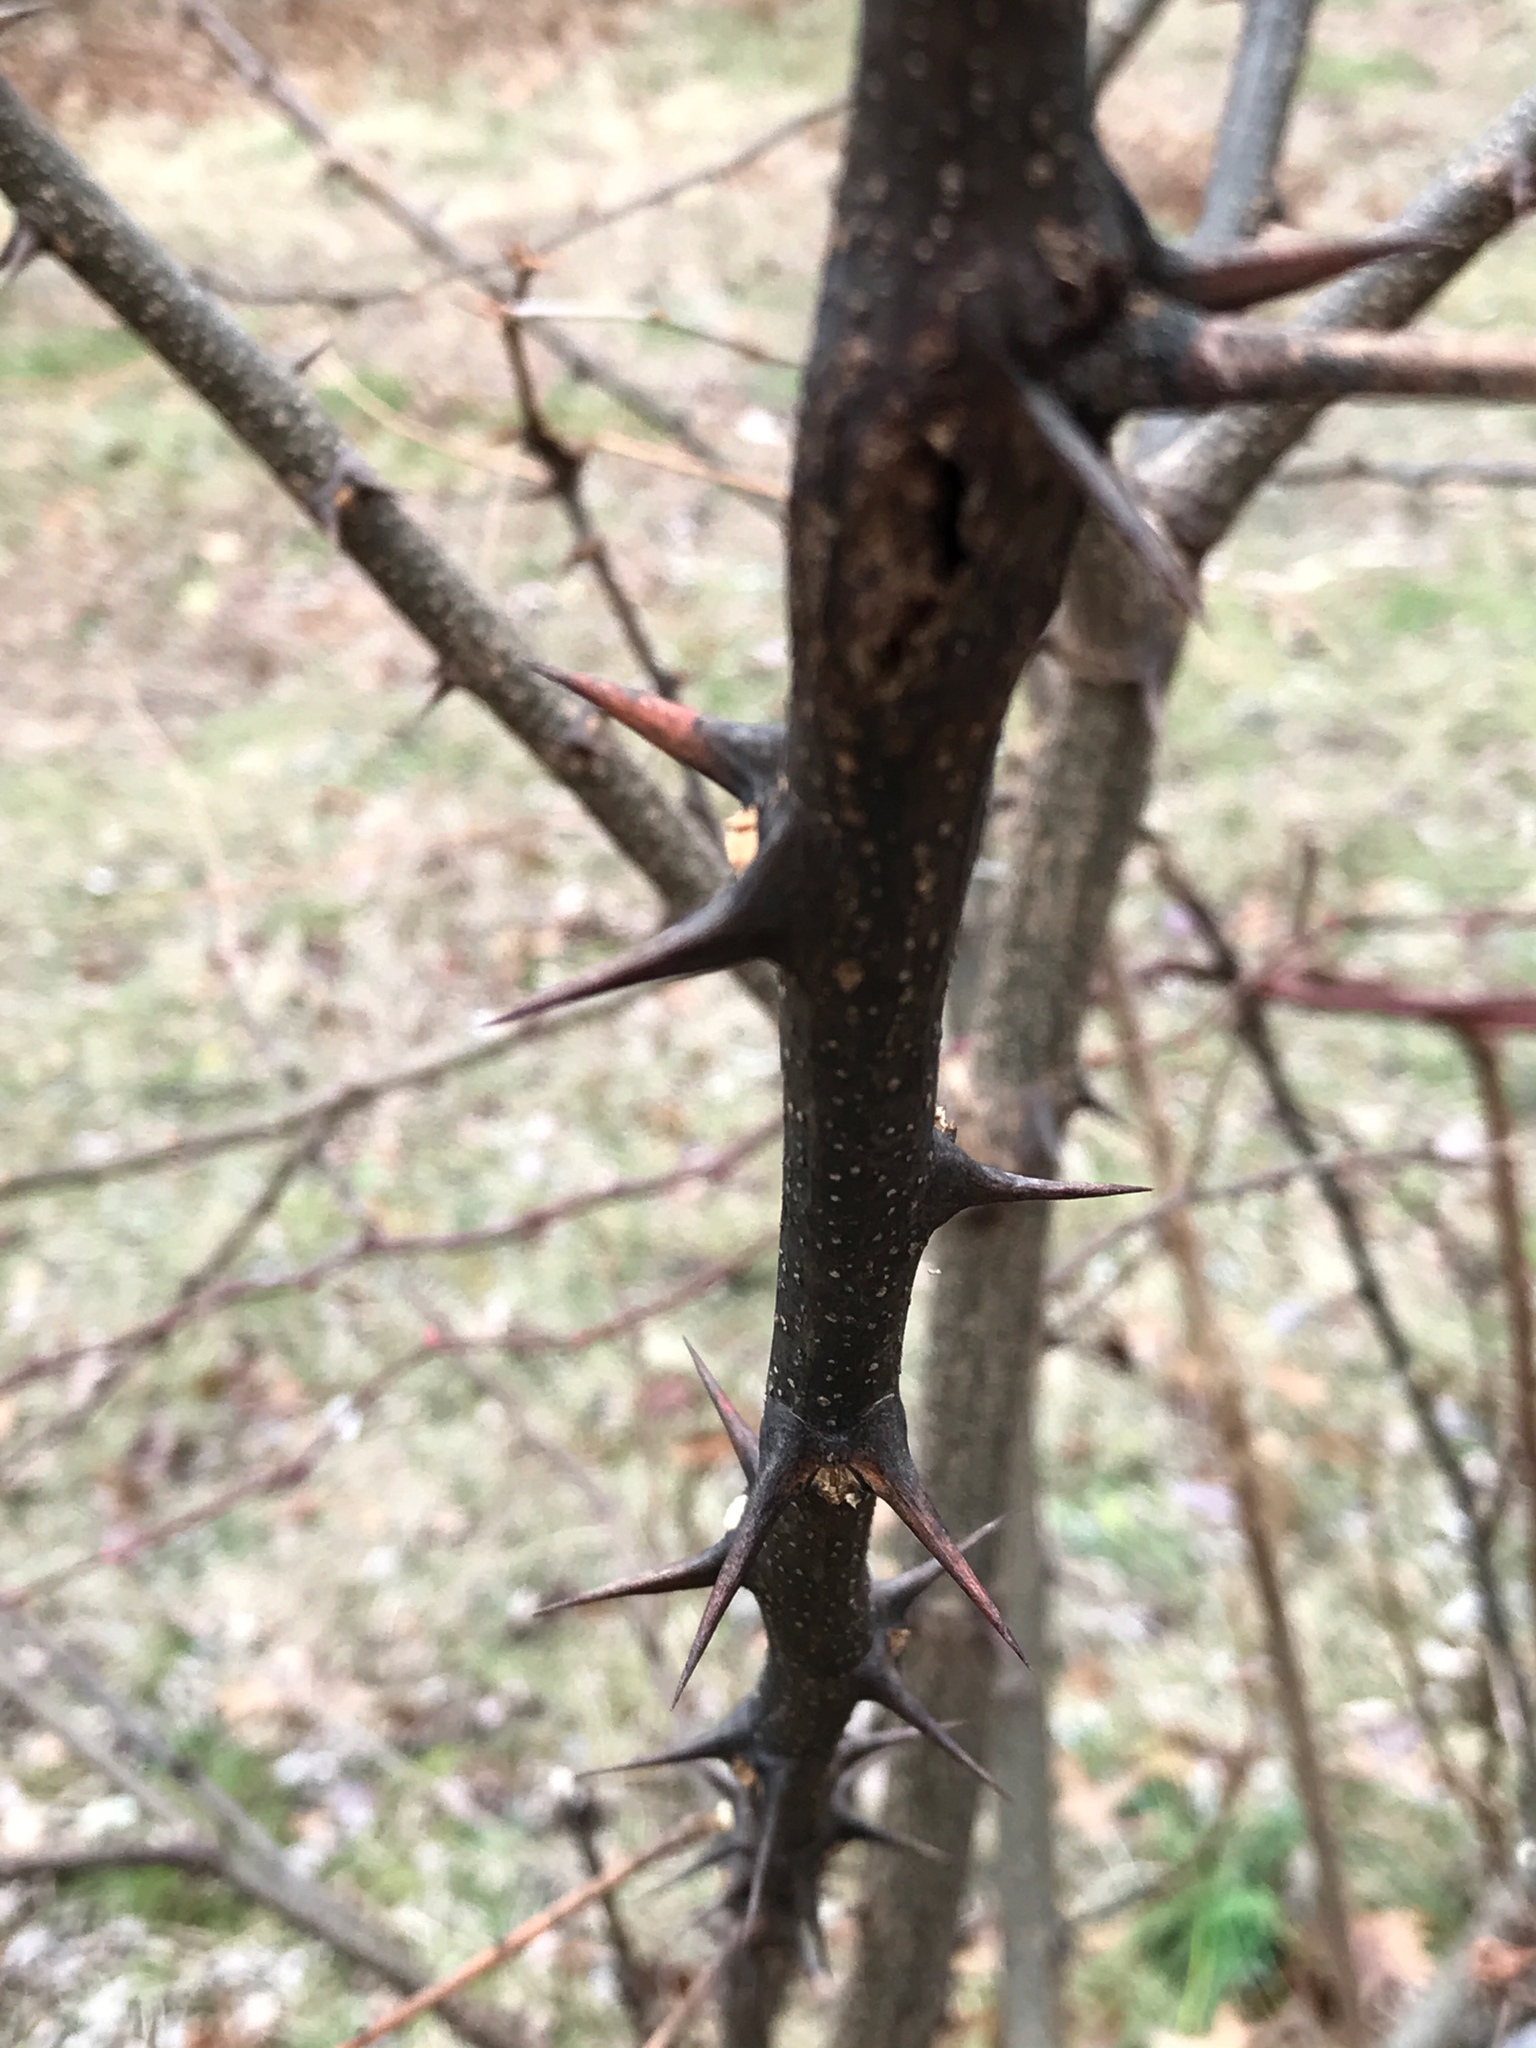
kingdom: Plantae
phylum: Tracheophyta
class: Magnoliopsida
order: Fabales
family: Fabaceae
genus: Robinia
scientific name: Robinia pseudoacacia
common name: Black locust
